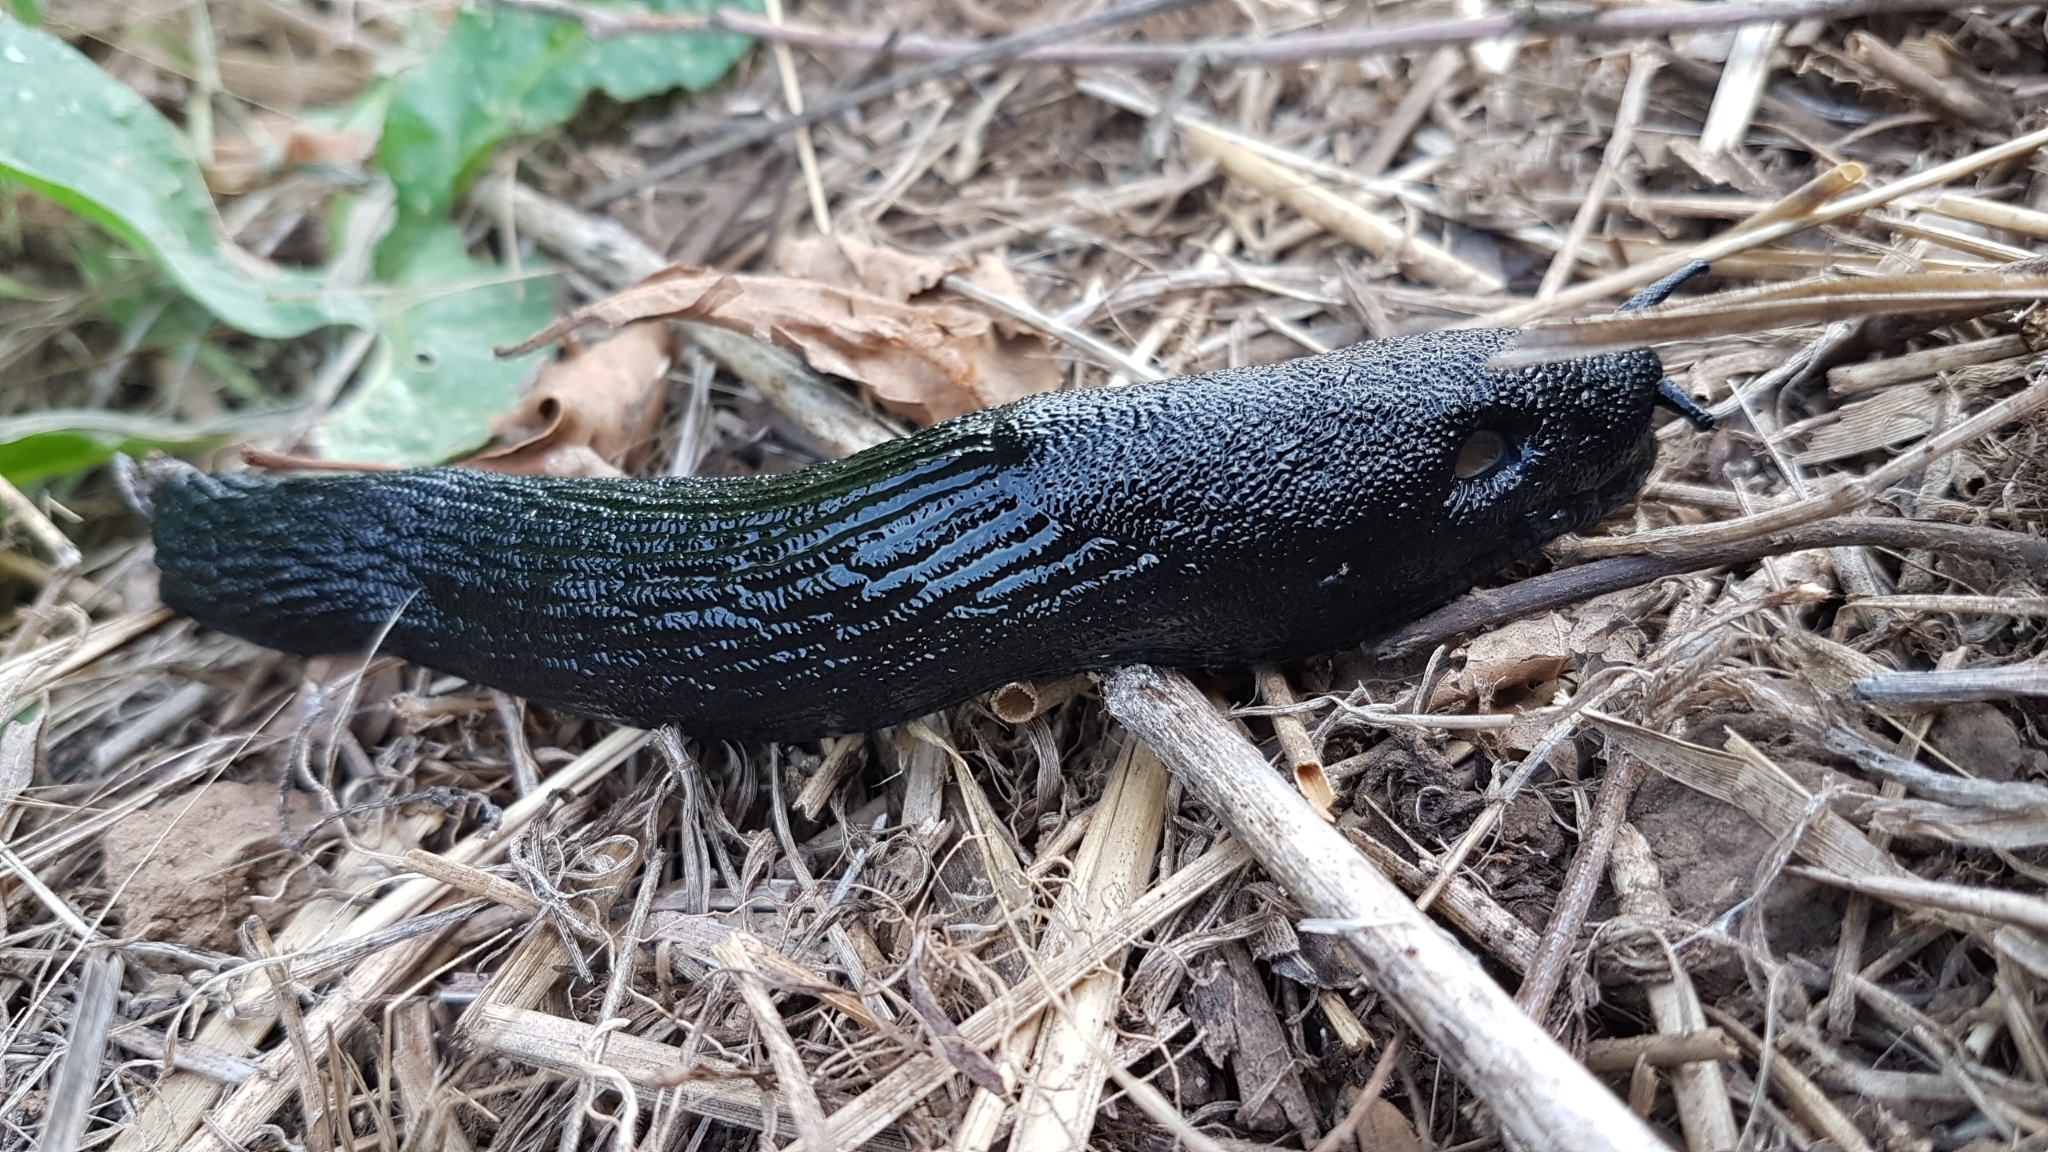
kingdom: Animalia
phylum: Mollusca
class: Gastropoda
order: Stylommatophora
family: Arionidae
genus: Arion
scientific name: Arion ater
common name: Black arion
